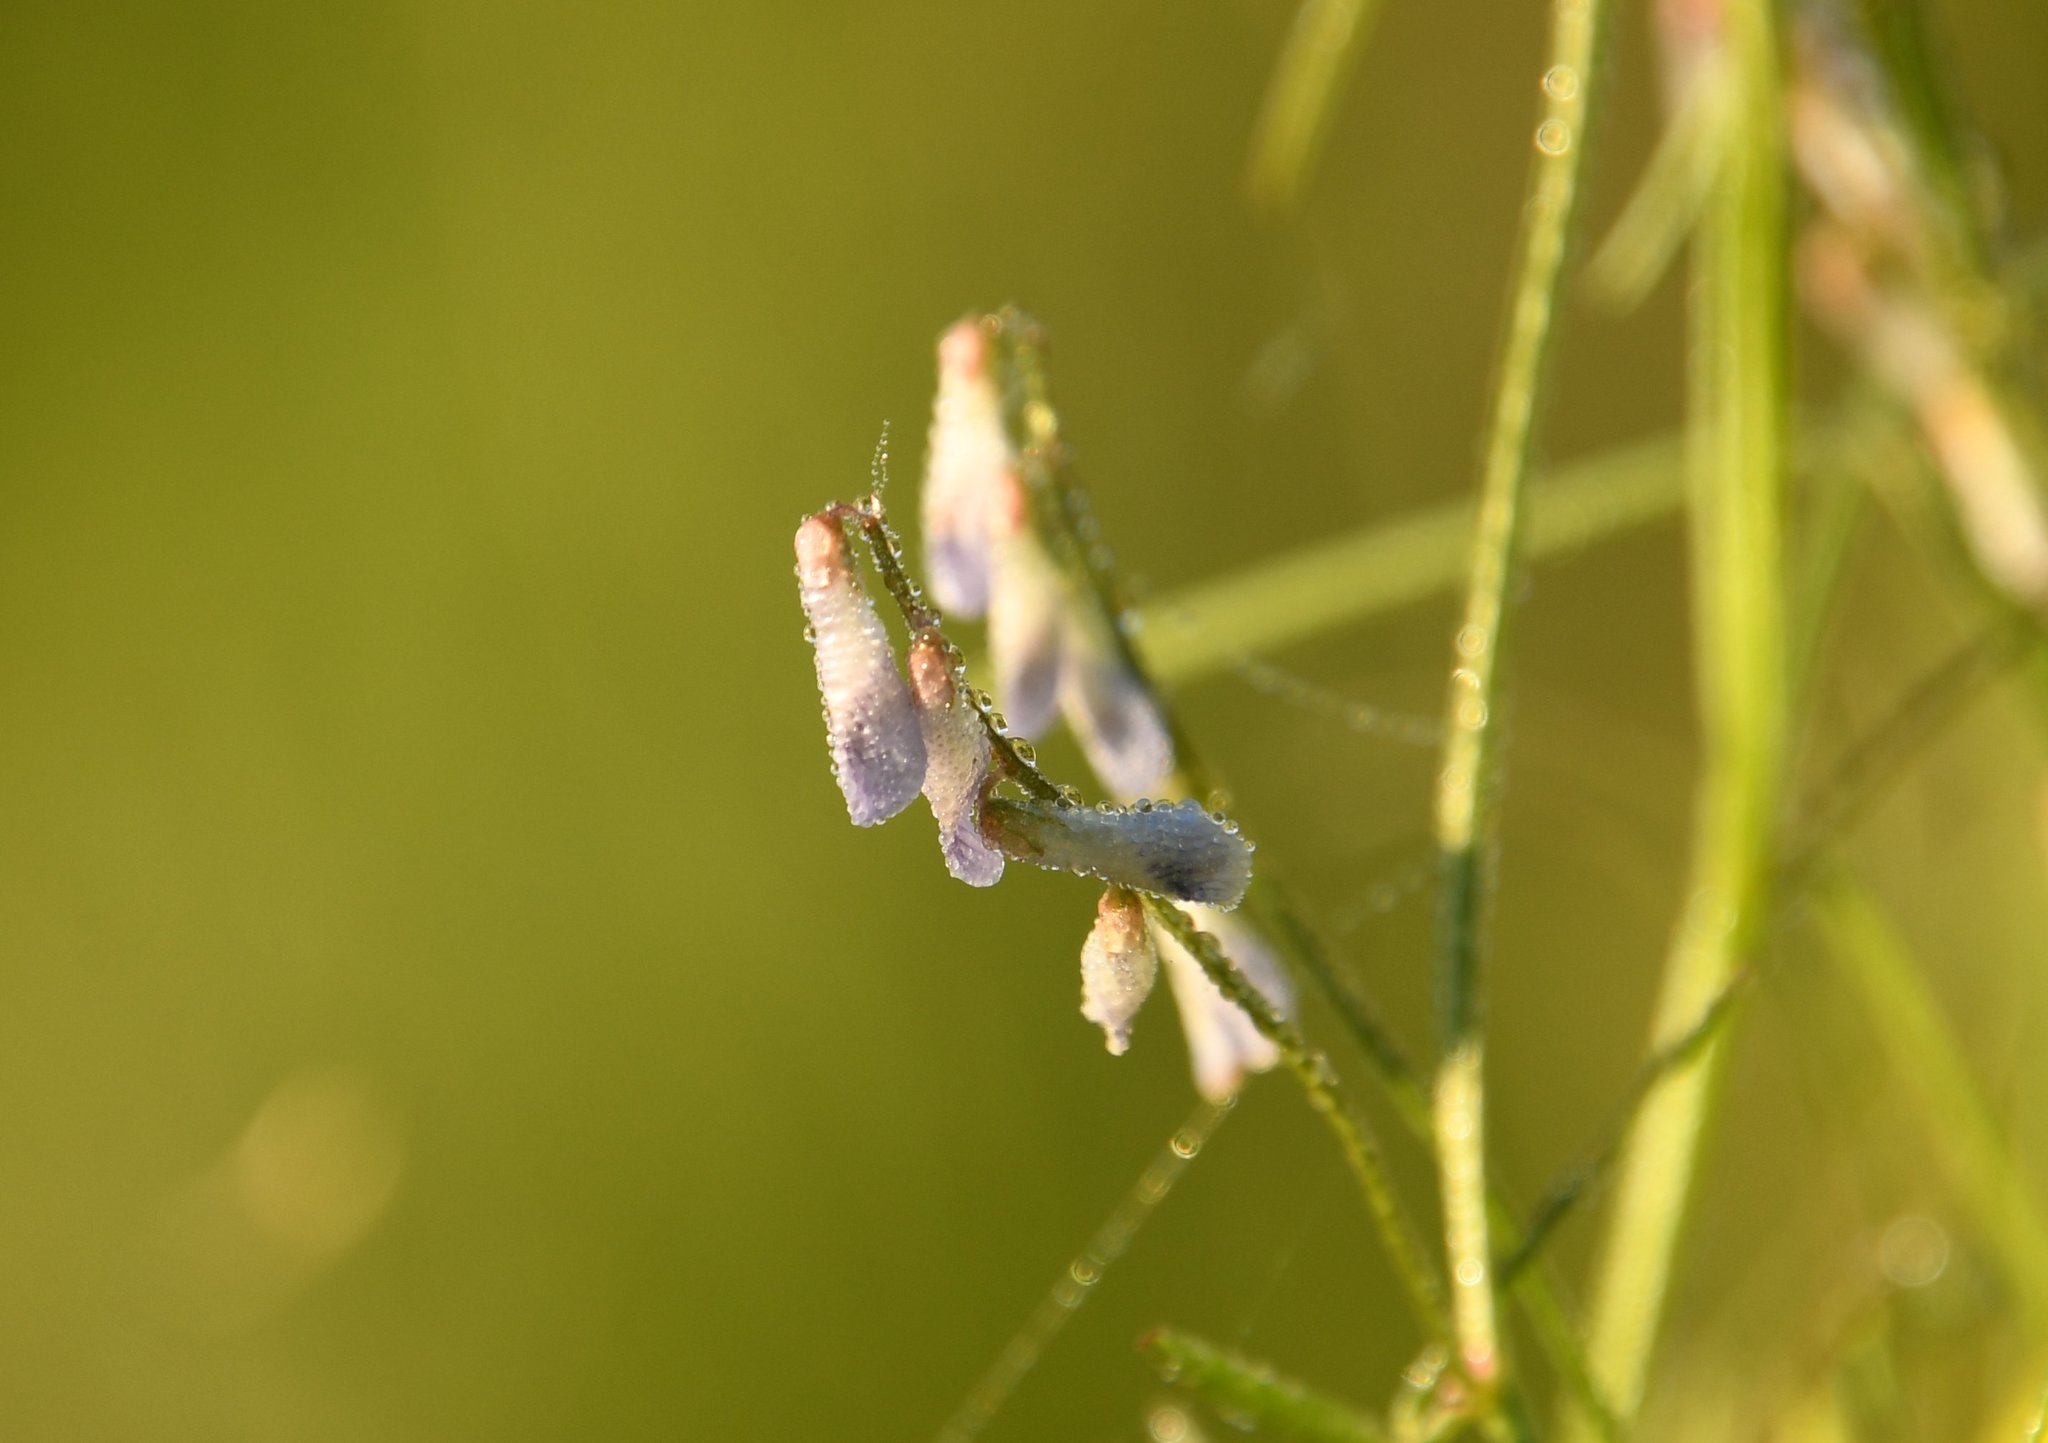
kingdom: Plantae
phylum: Tracheophyta
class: Magnoliopsida
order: Fabales
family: Fabaceae
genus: Vicia
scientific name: Vicia acutifolia
